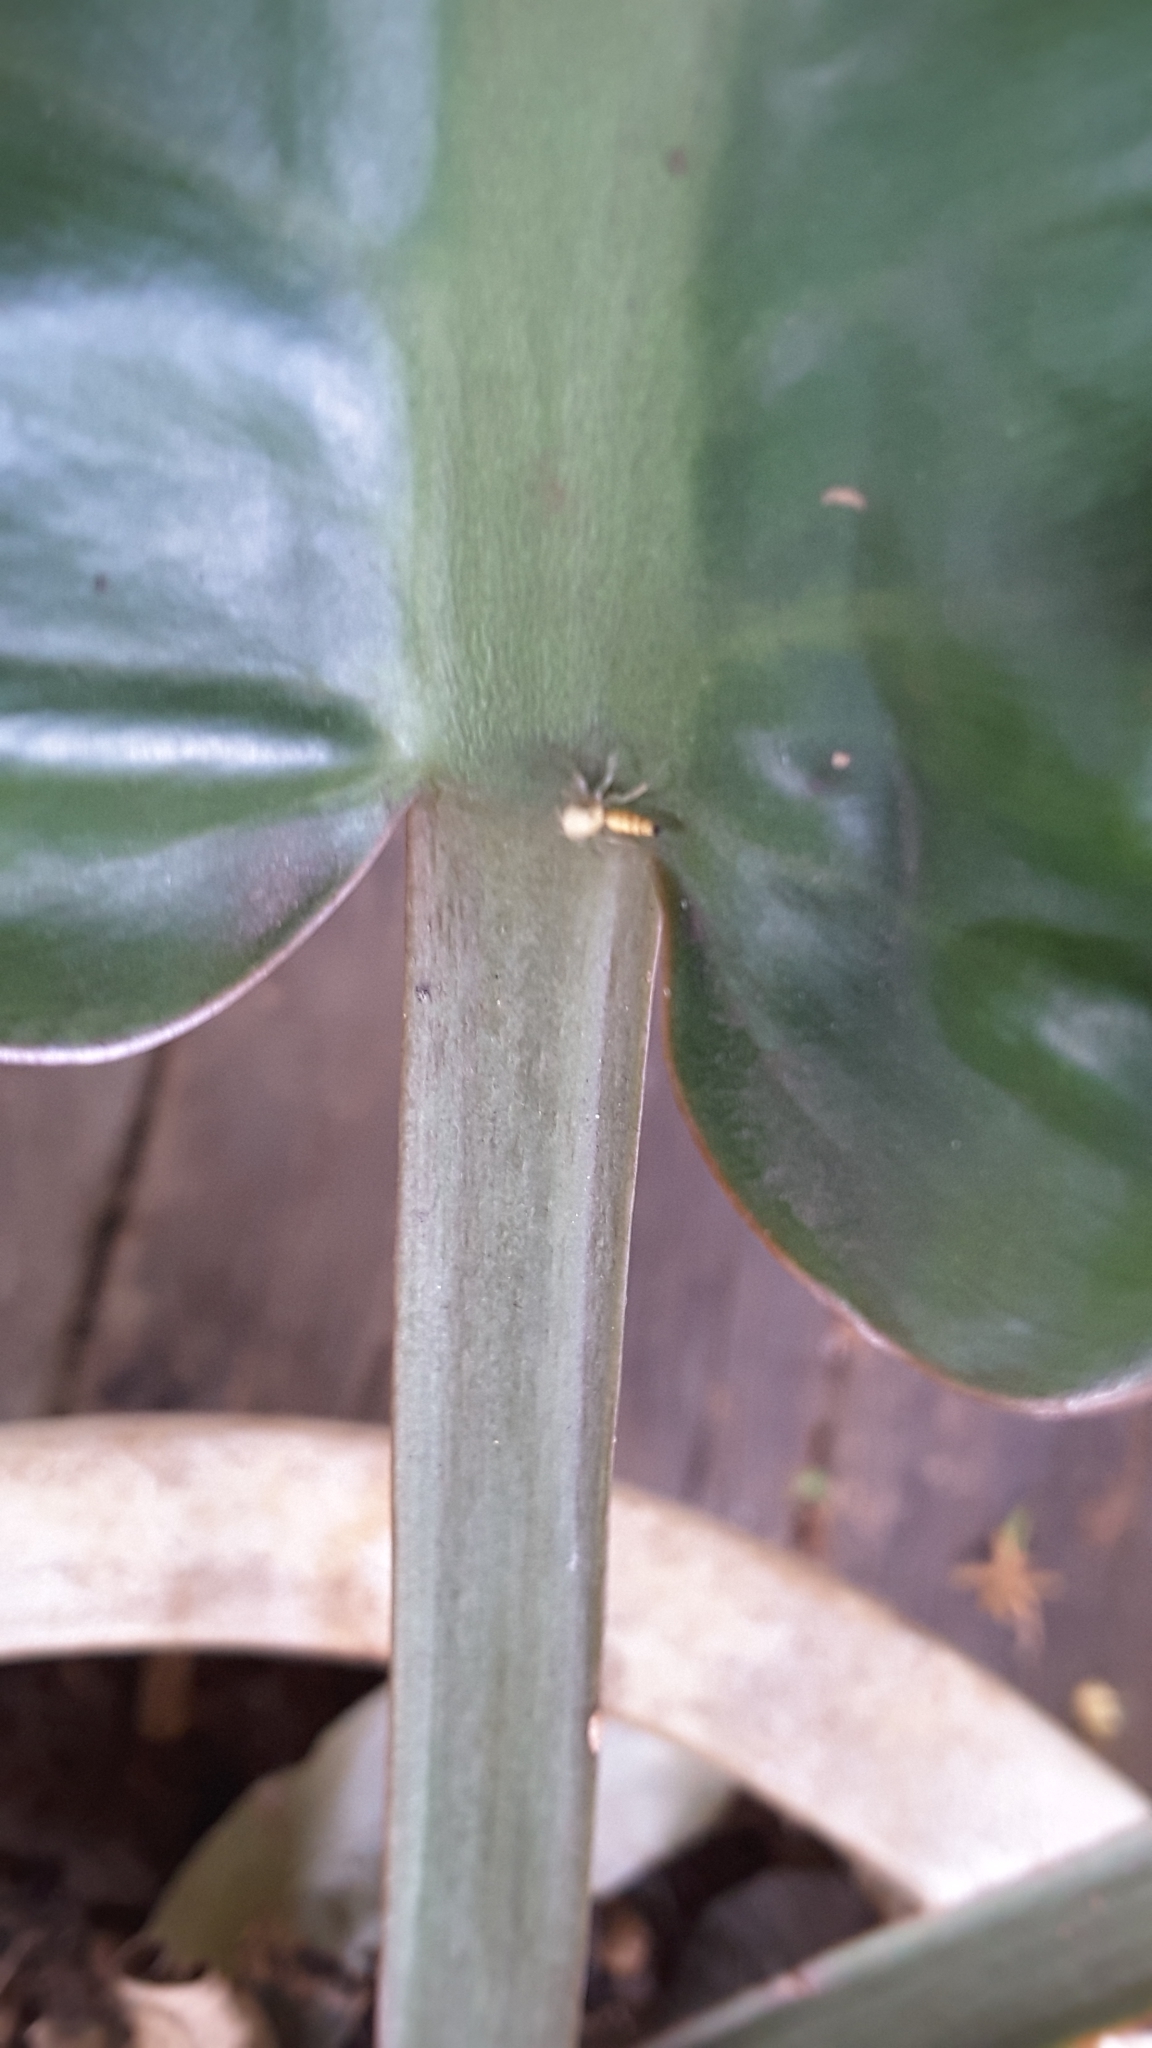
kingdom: Animalia
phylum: Arthropoda
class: Arachnida
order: Araneae
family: Salticidae
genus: Cosmophasis
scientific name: Cosmophasis lami
